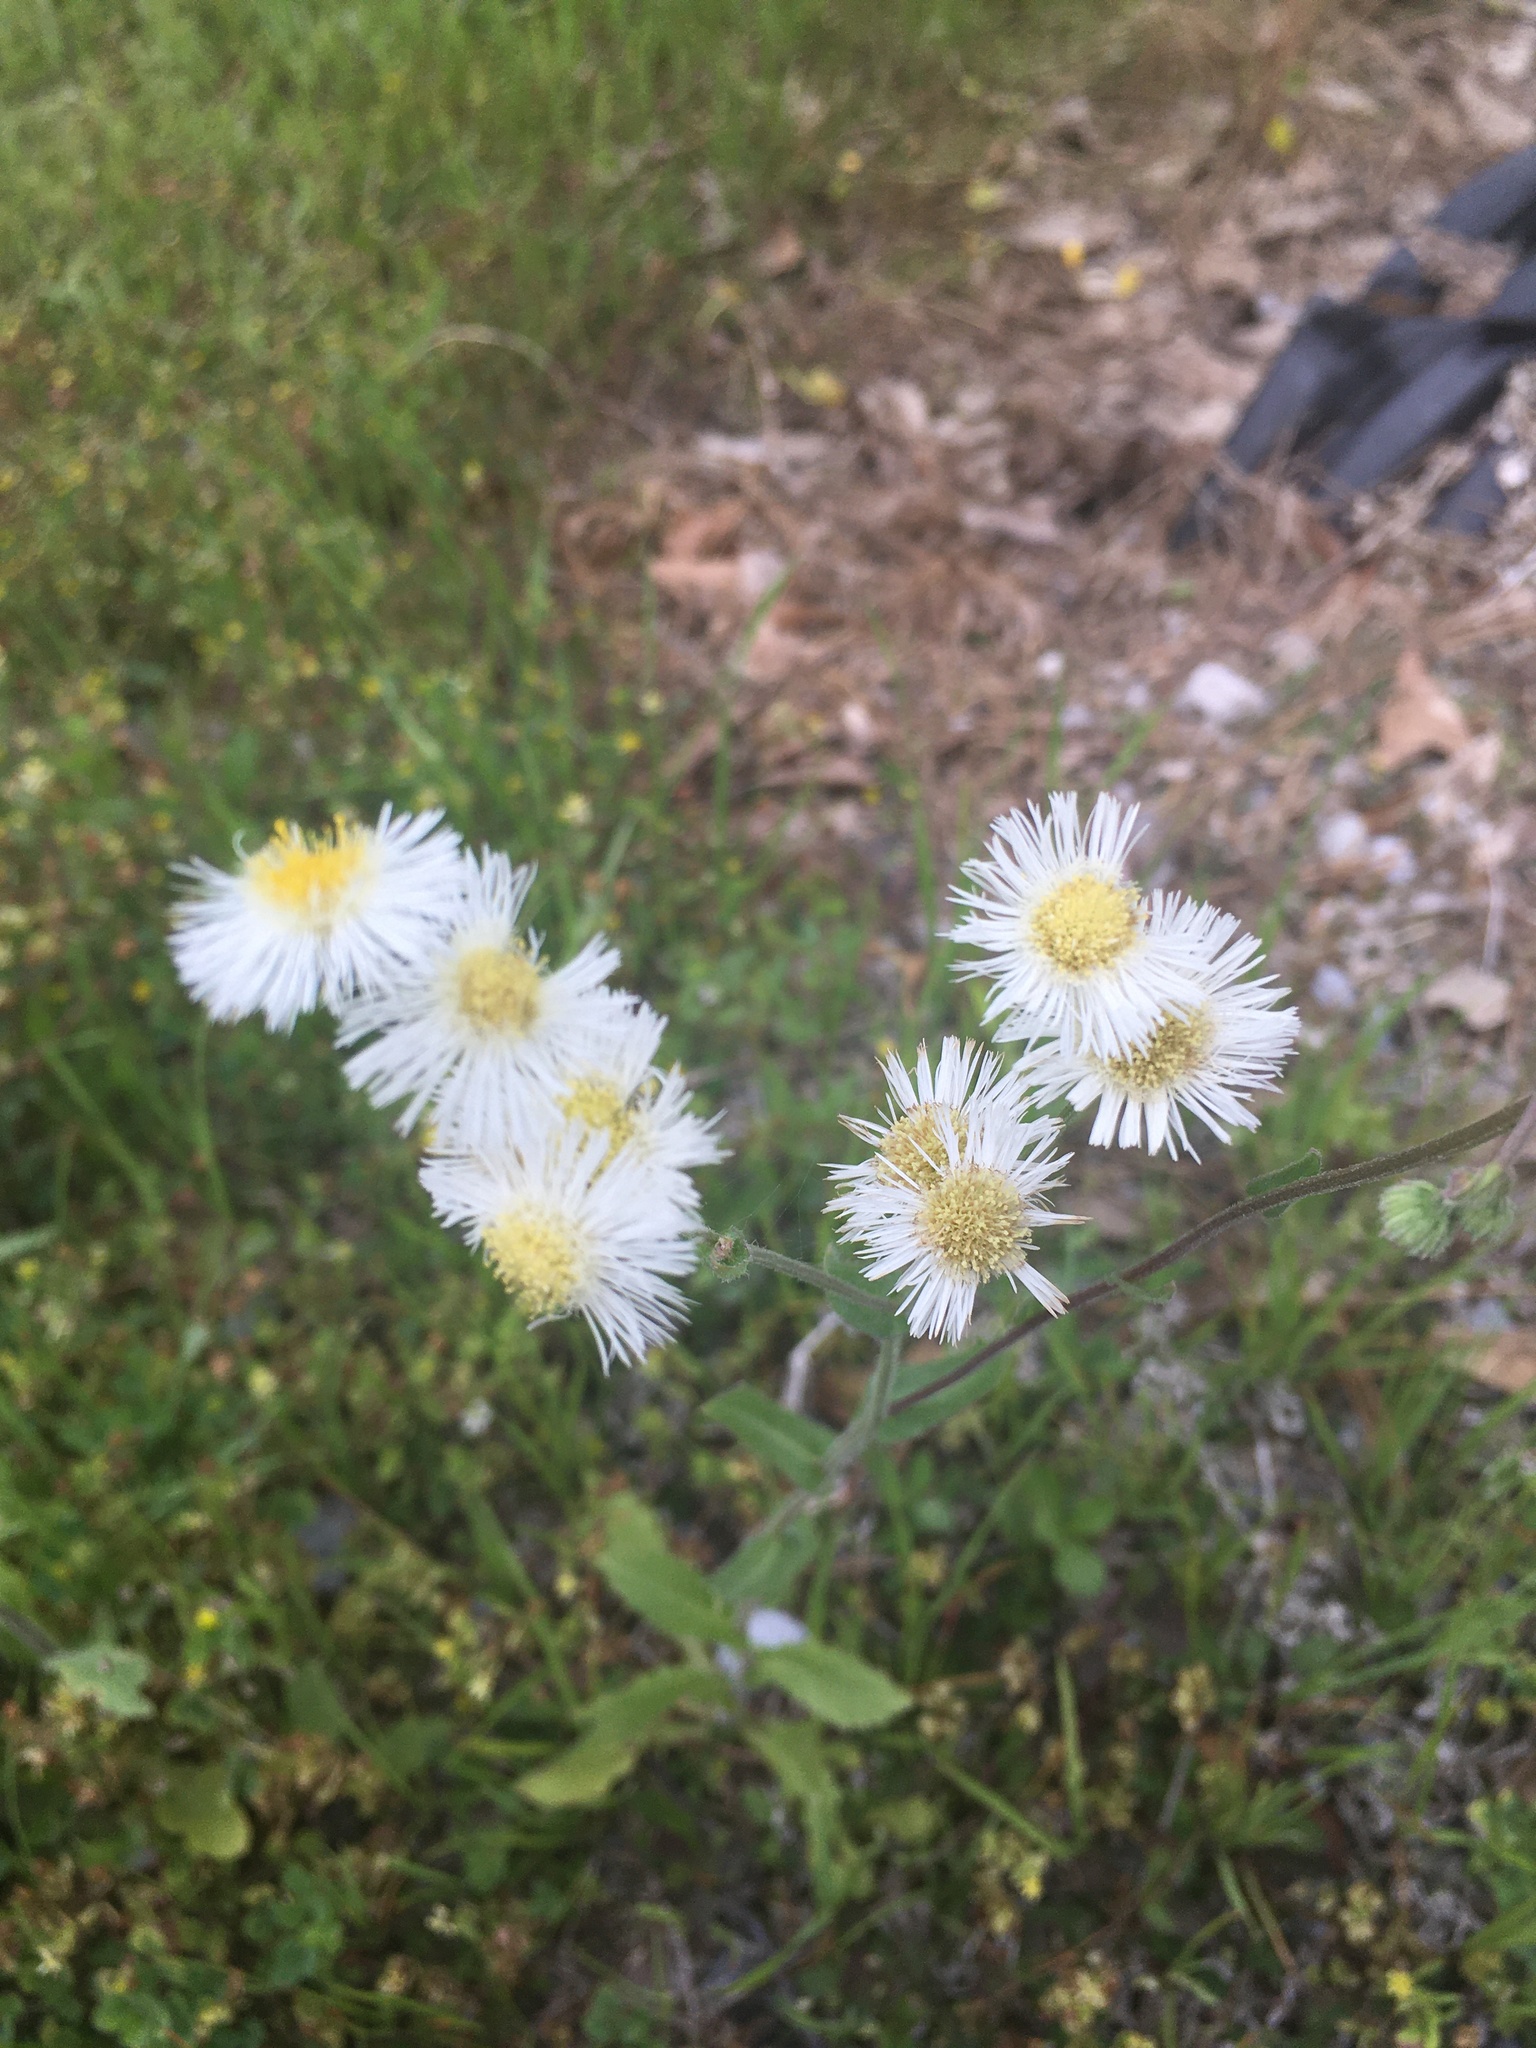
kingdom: Plantae
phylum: Tracheophyta
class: Magnoliopsida
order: Asterales
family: Asteraceae
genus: Erigeron
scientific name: Erigeron philadelphicus
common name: Robin's-plantain
